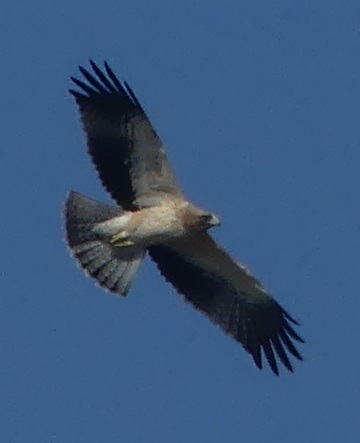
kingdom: Animalia
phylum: Chordata
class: Aves
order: Accipitriformes
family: Accipitridae
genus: Hieraaetus
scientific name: Hieraaetus pennatus
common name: Booted eagle
